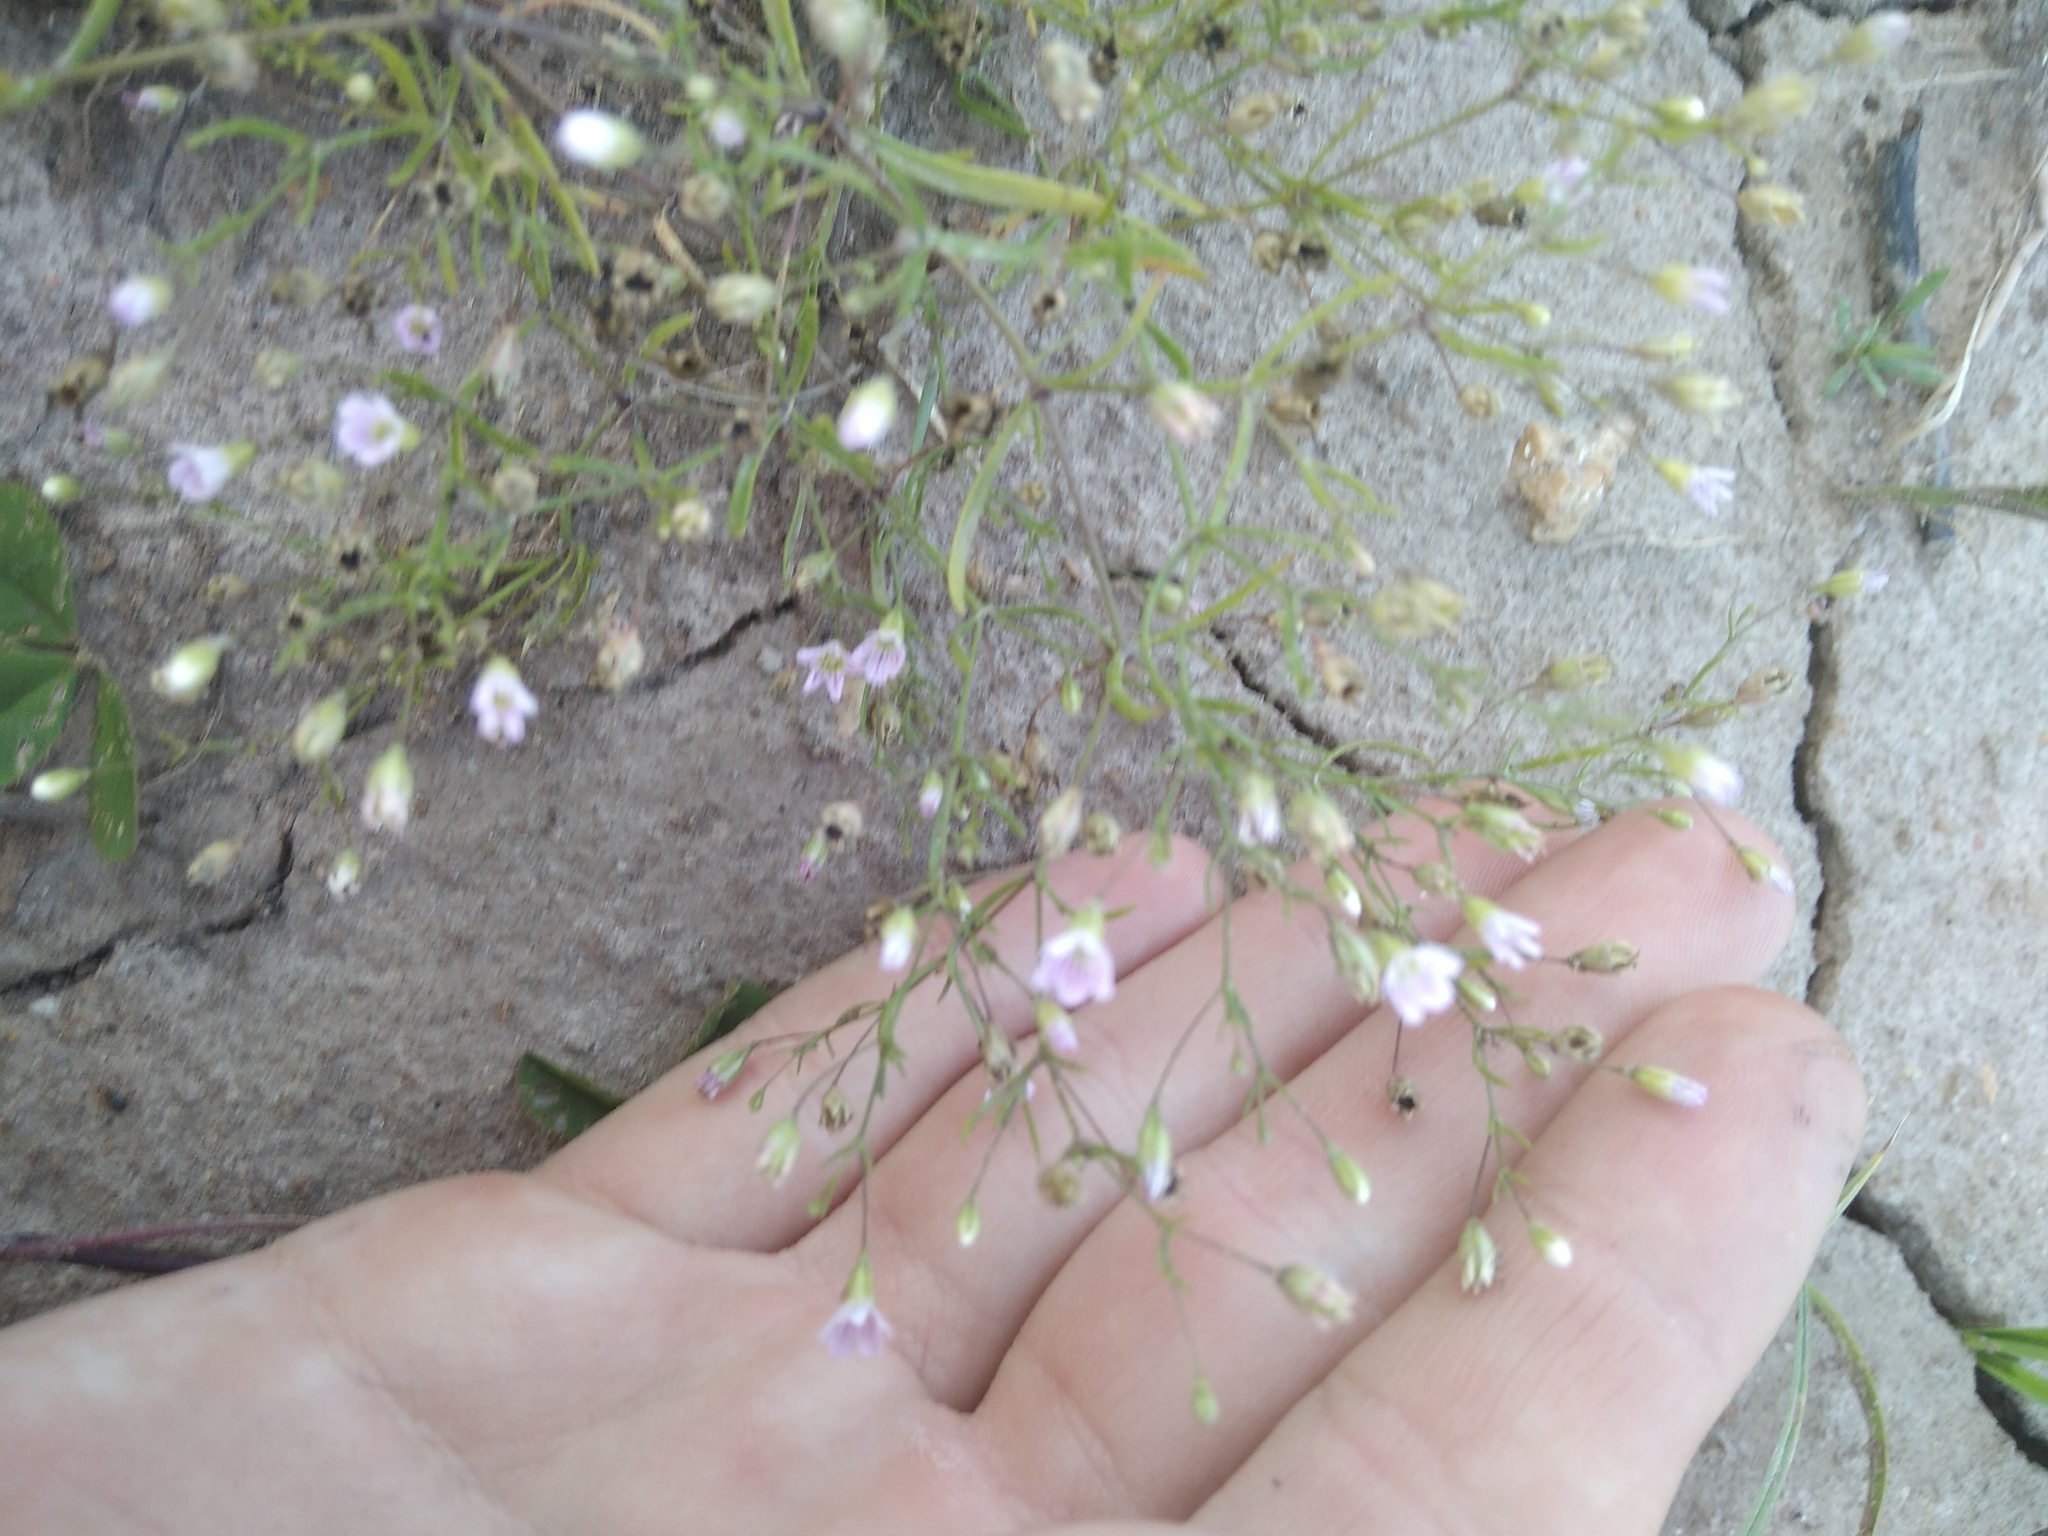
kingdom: Plantae
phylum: Tracheophyta
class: Magnoliopsida
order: Caryophyllales
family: Caryophyllaceae
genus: Psammophiliella
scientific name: Psammophiliella muralis
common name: Cushion baby's-breath
